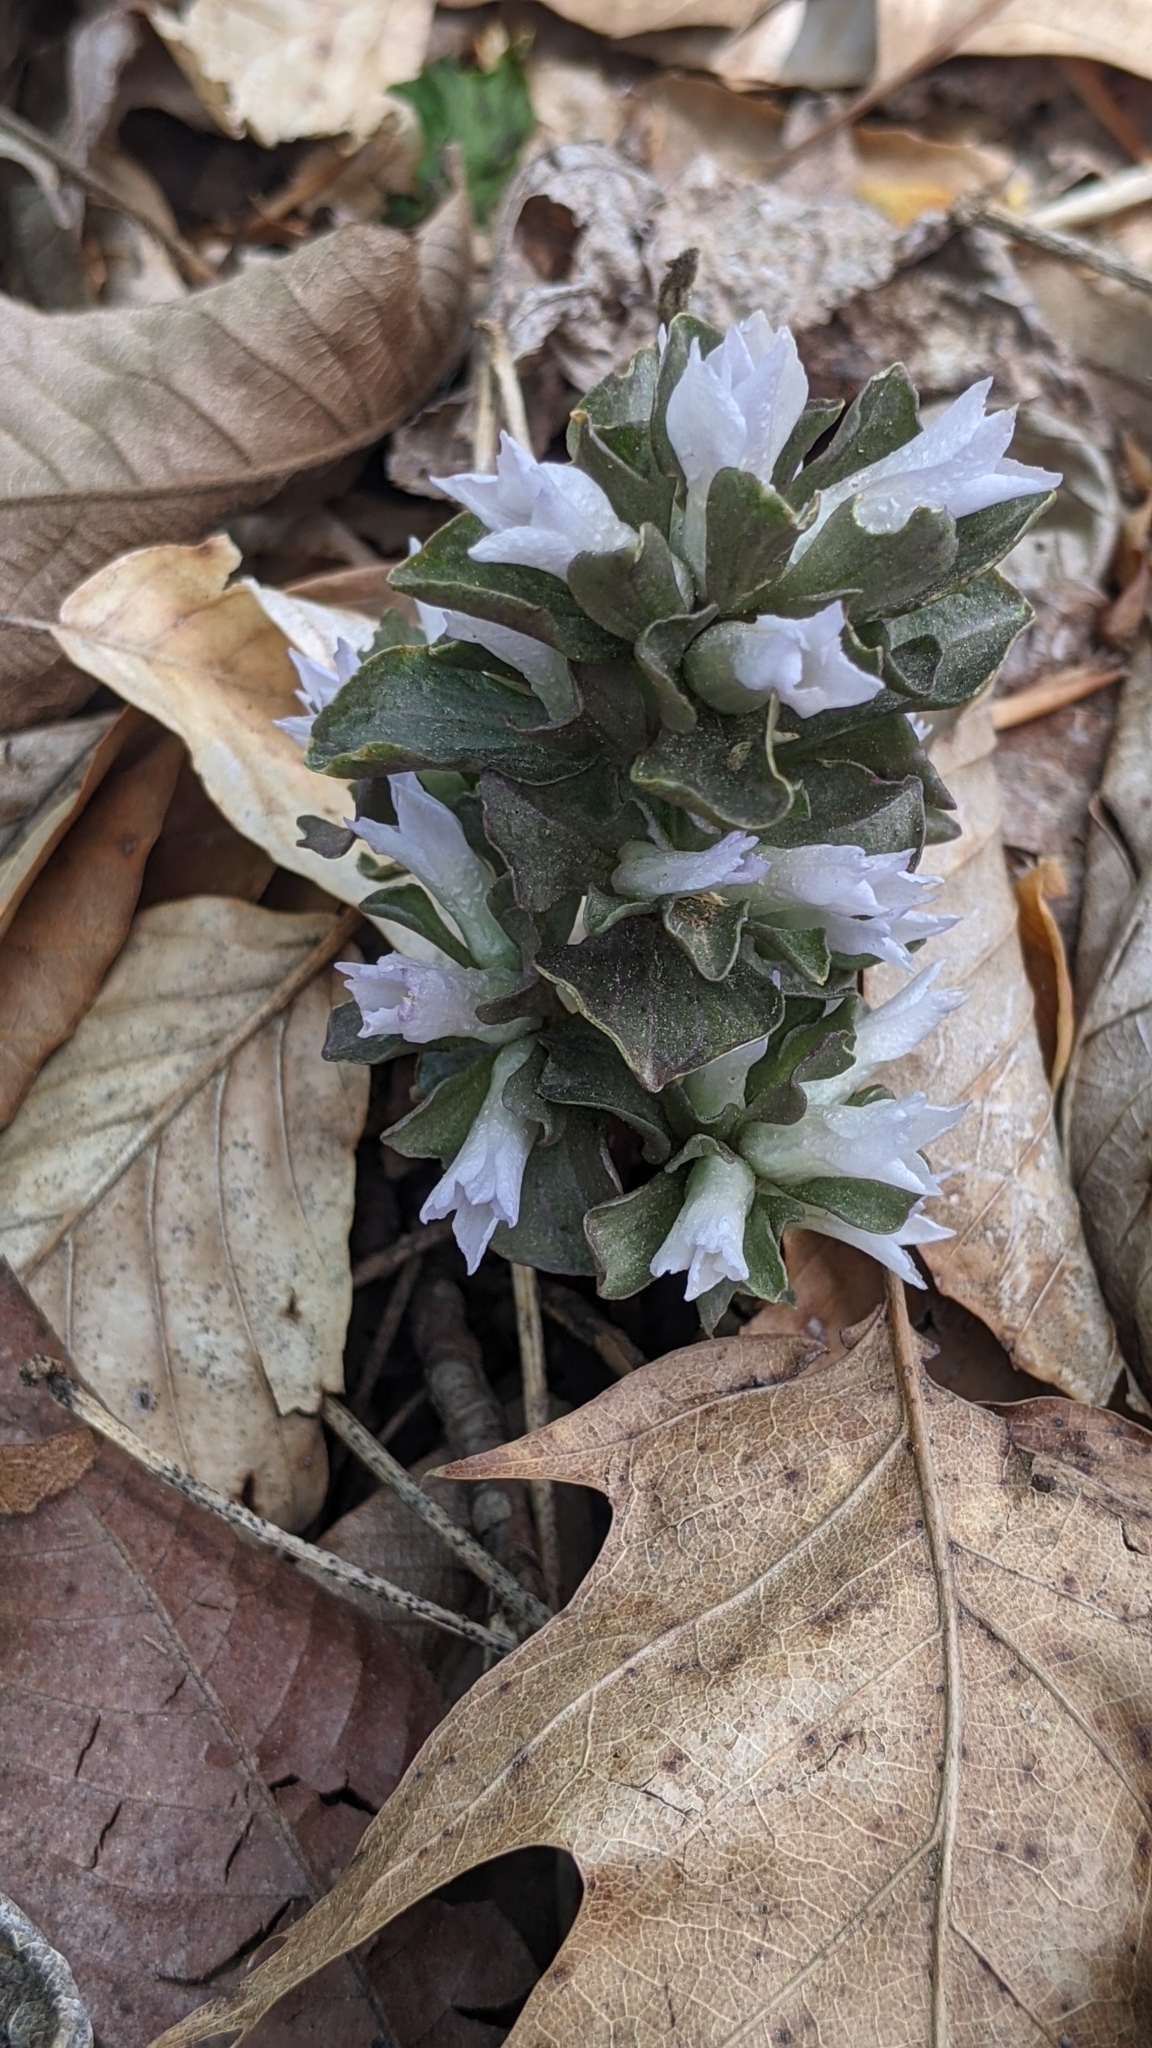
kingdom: Plantae
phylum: Tracheophyta
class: Magnoliopsida
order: Gentianales
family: Gentianaceae
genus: Obolaria
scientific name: Obolaria virginica
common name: Pennywort
